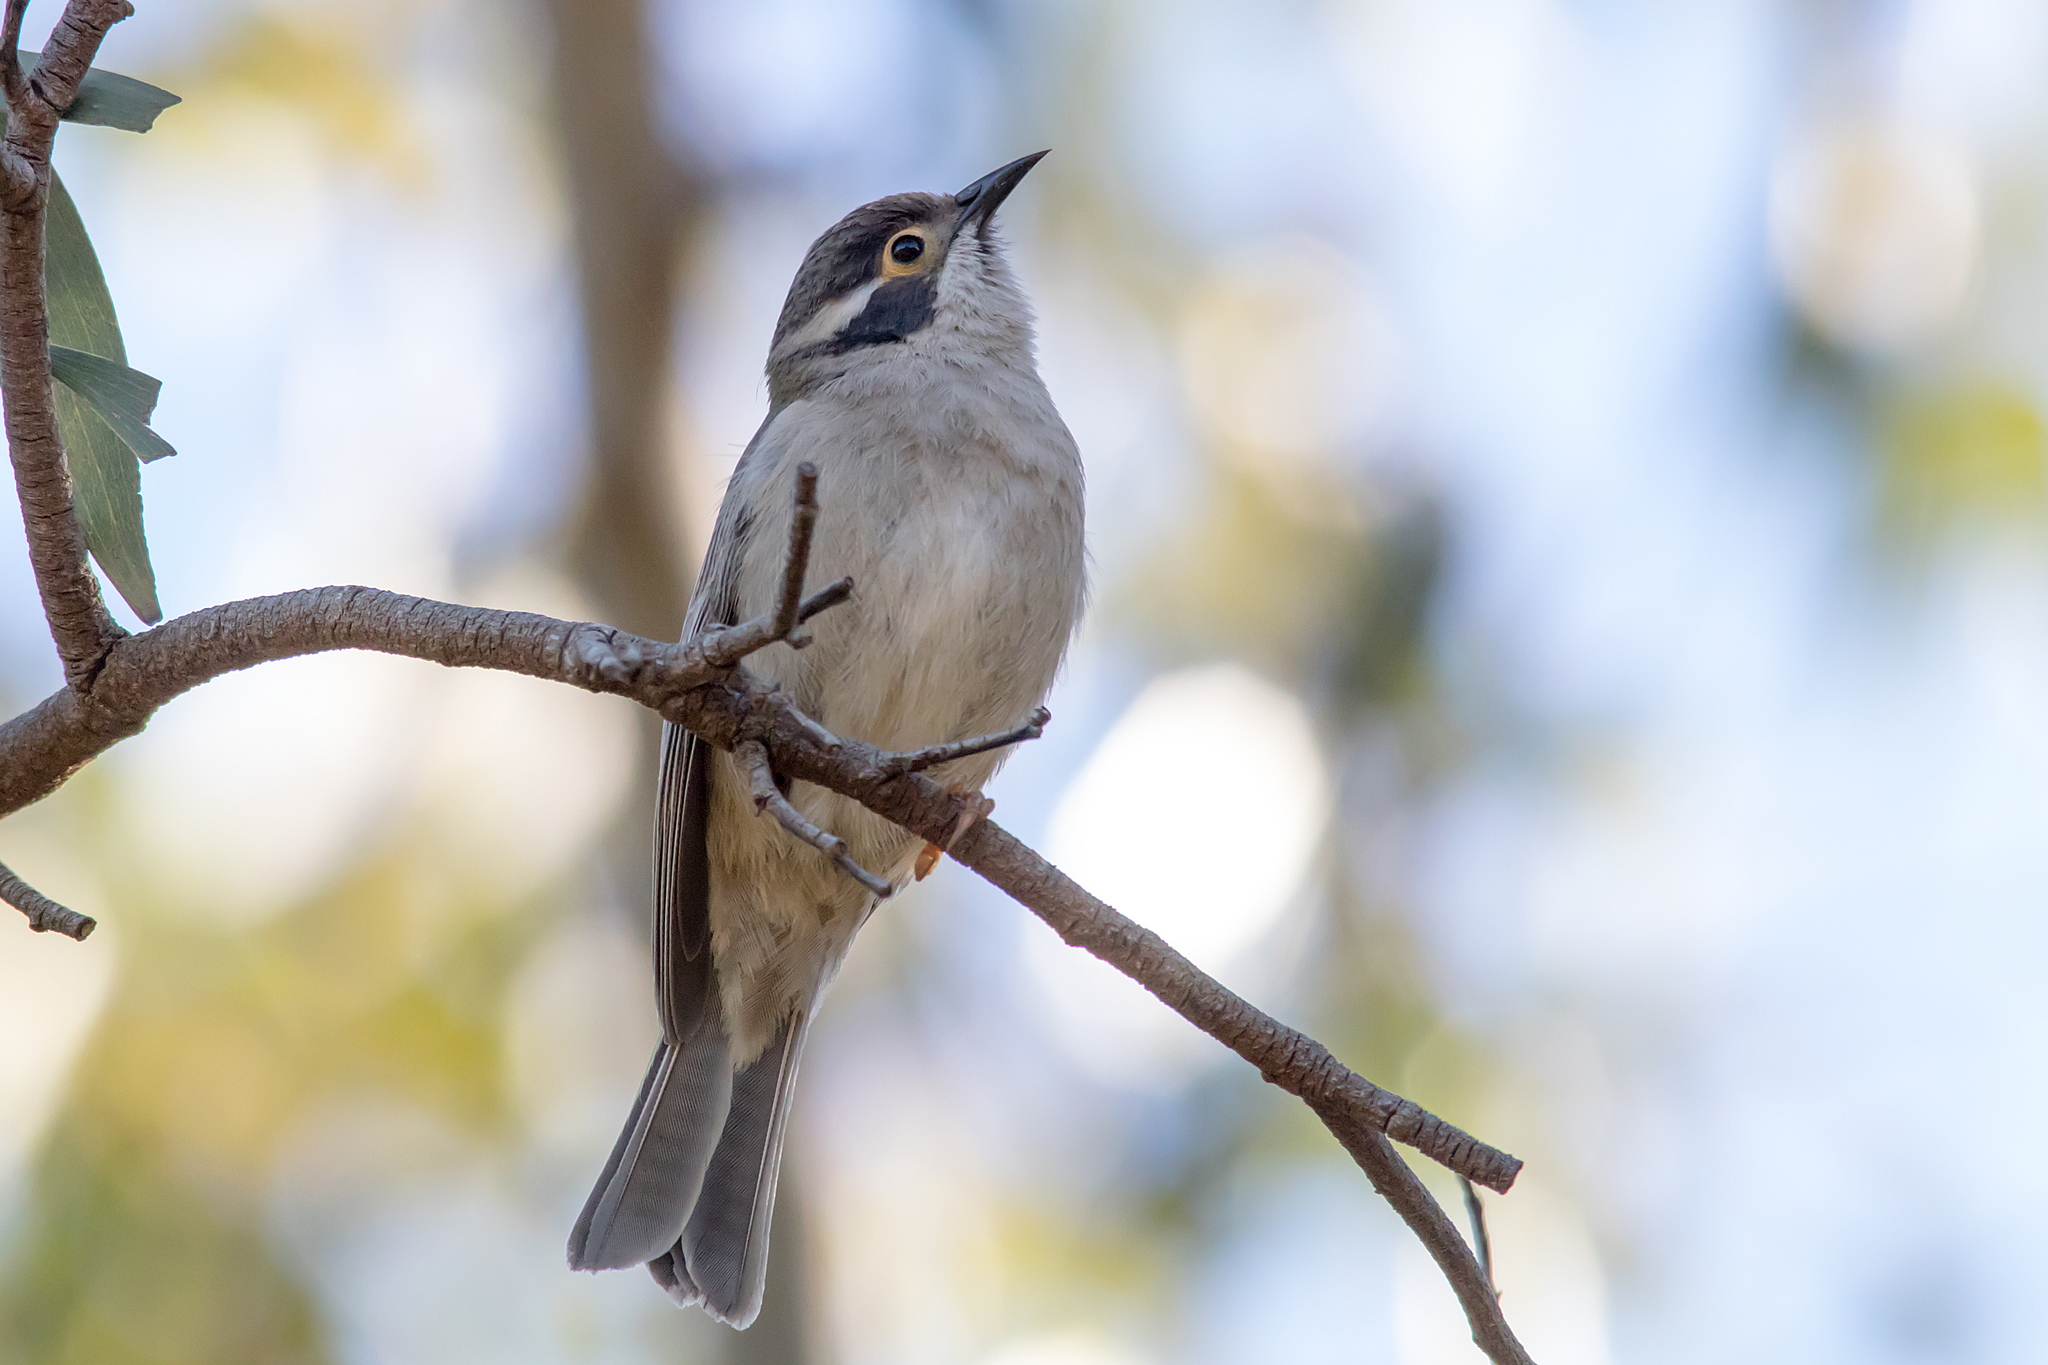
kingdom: Animalia
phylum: Chordata
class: Aves
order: Passeriformes
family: Meliphagidae
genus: Melithreptus
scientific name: Melithreptus brevirostris
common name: Brown-headed honeyeater
